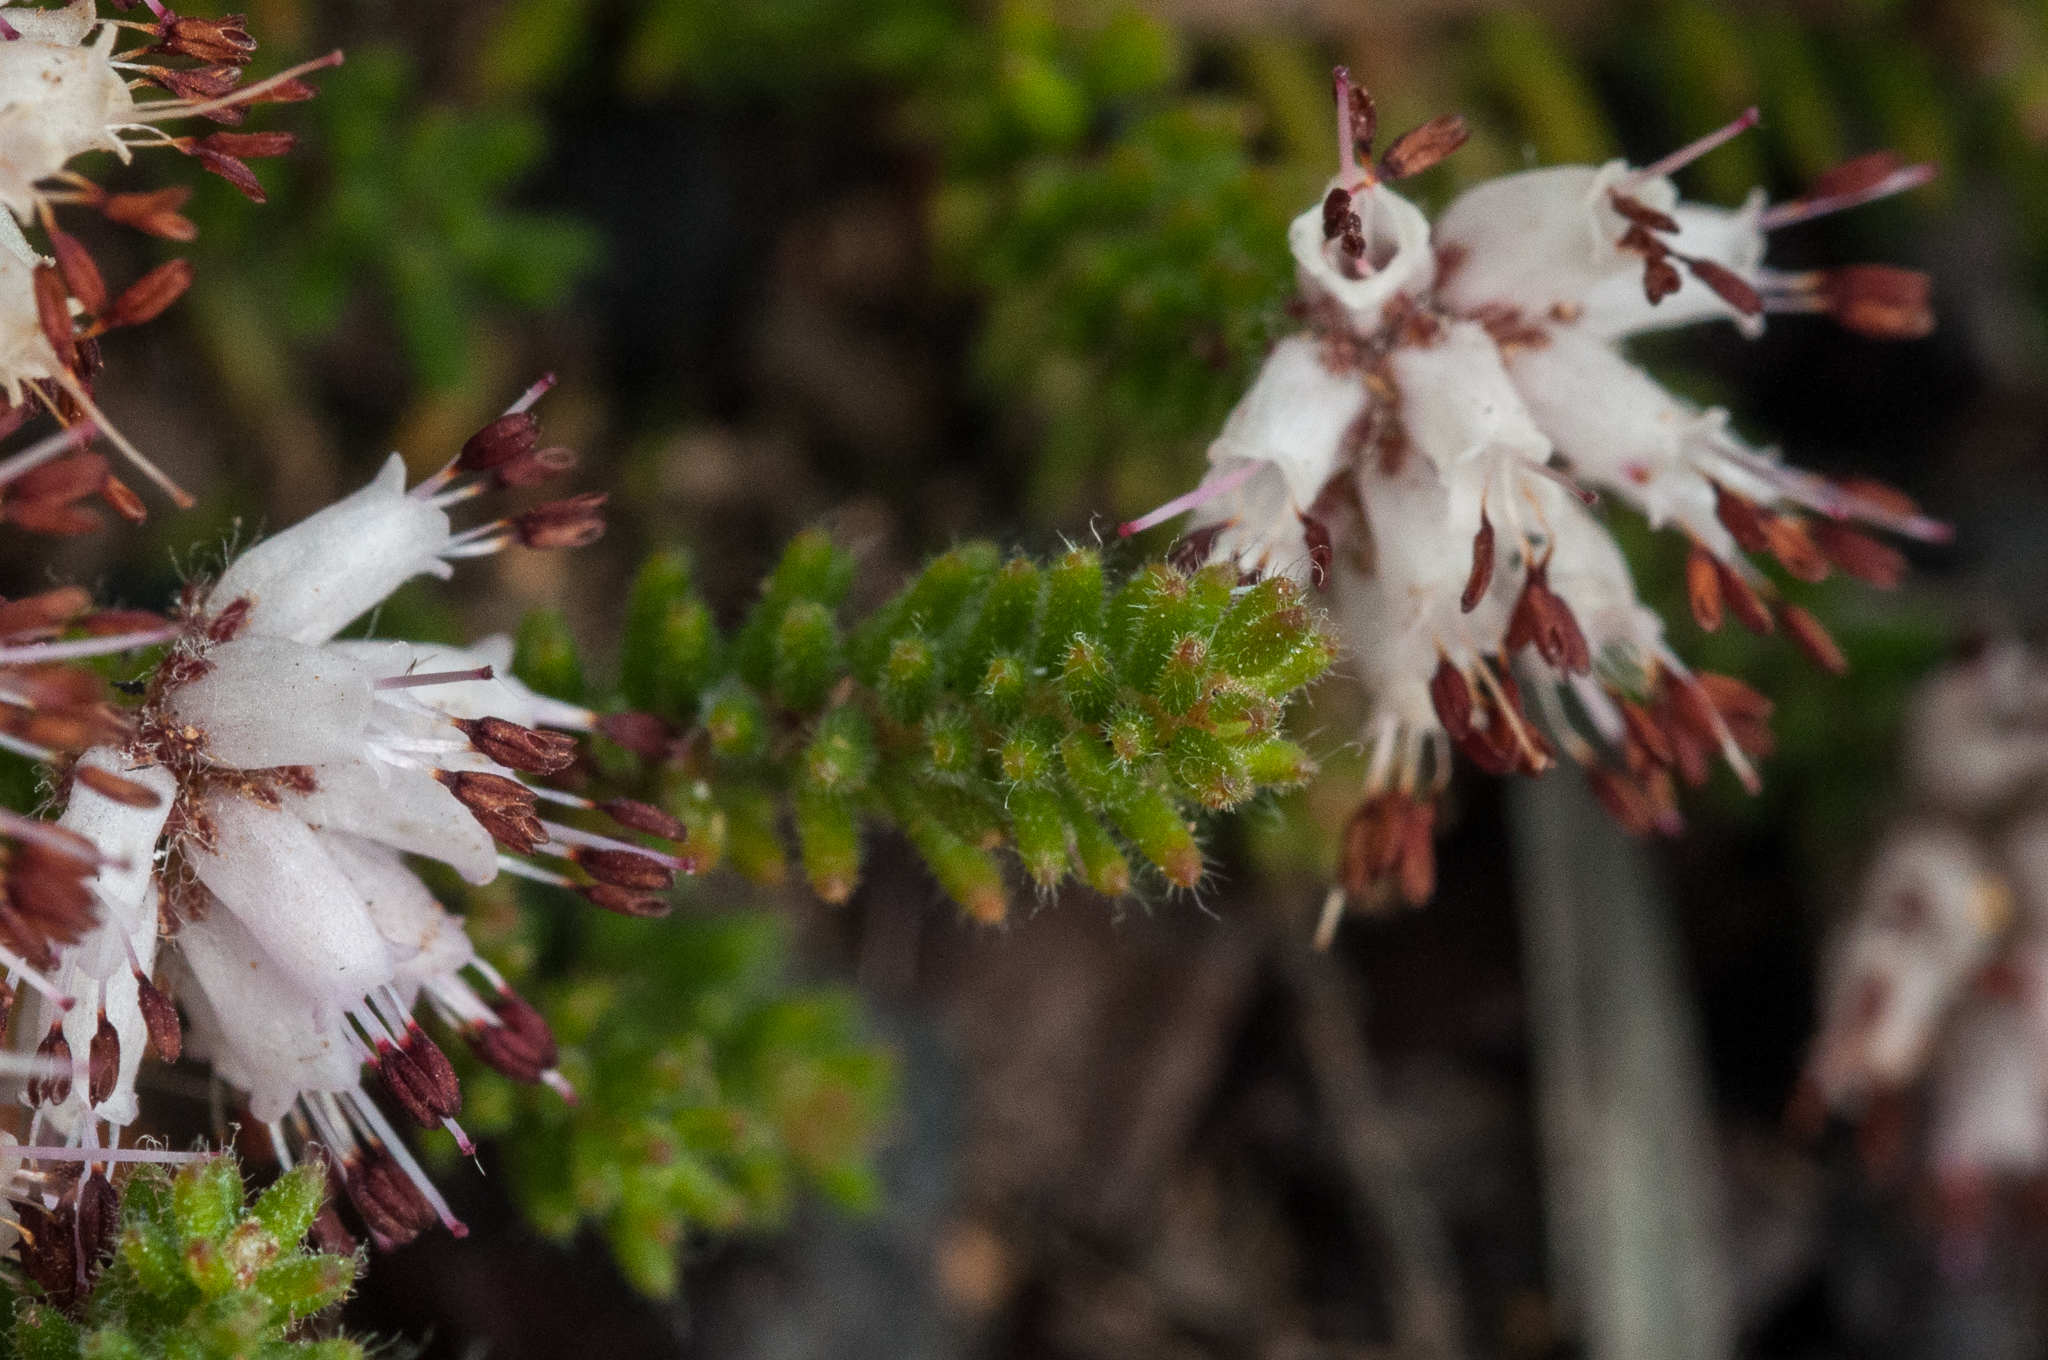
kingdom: Plantae
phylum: Tracheophyta
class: Magnoliopsida
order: Ericales
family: Ericaceae
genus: Erica
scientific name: Erica ericoides
